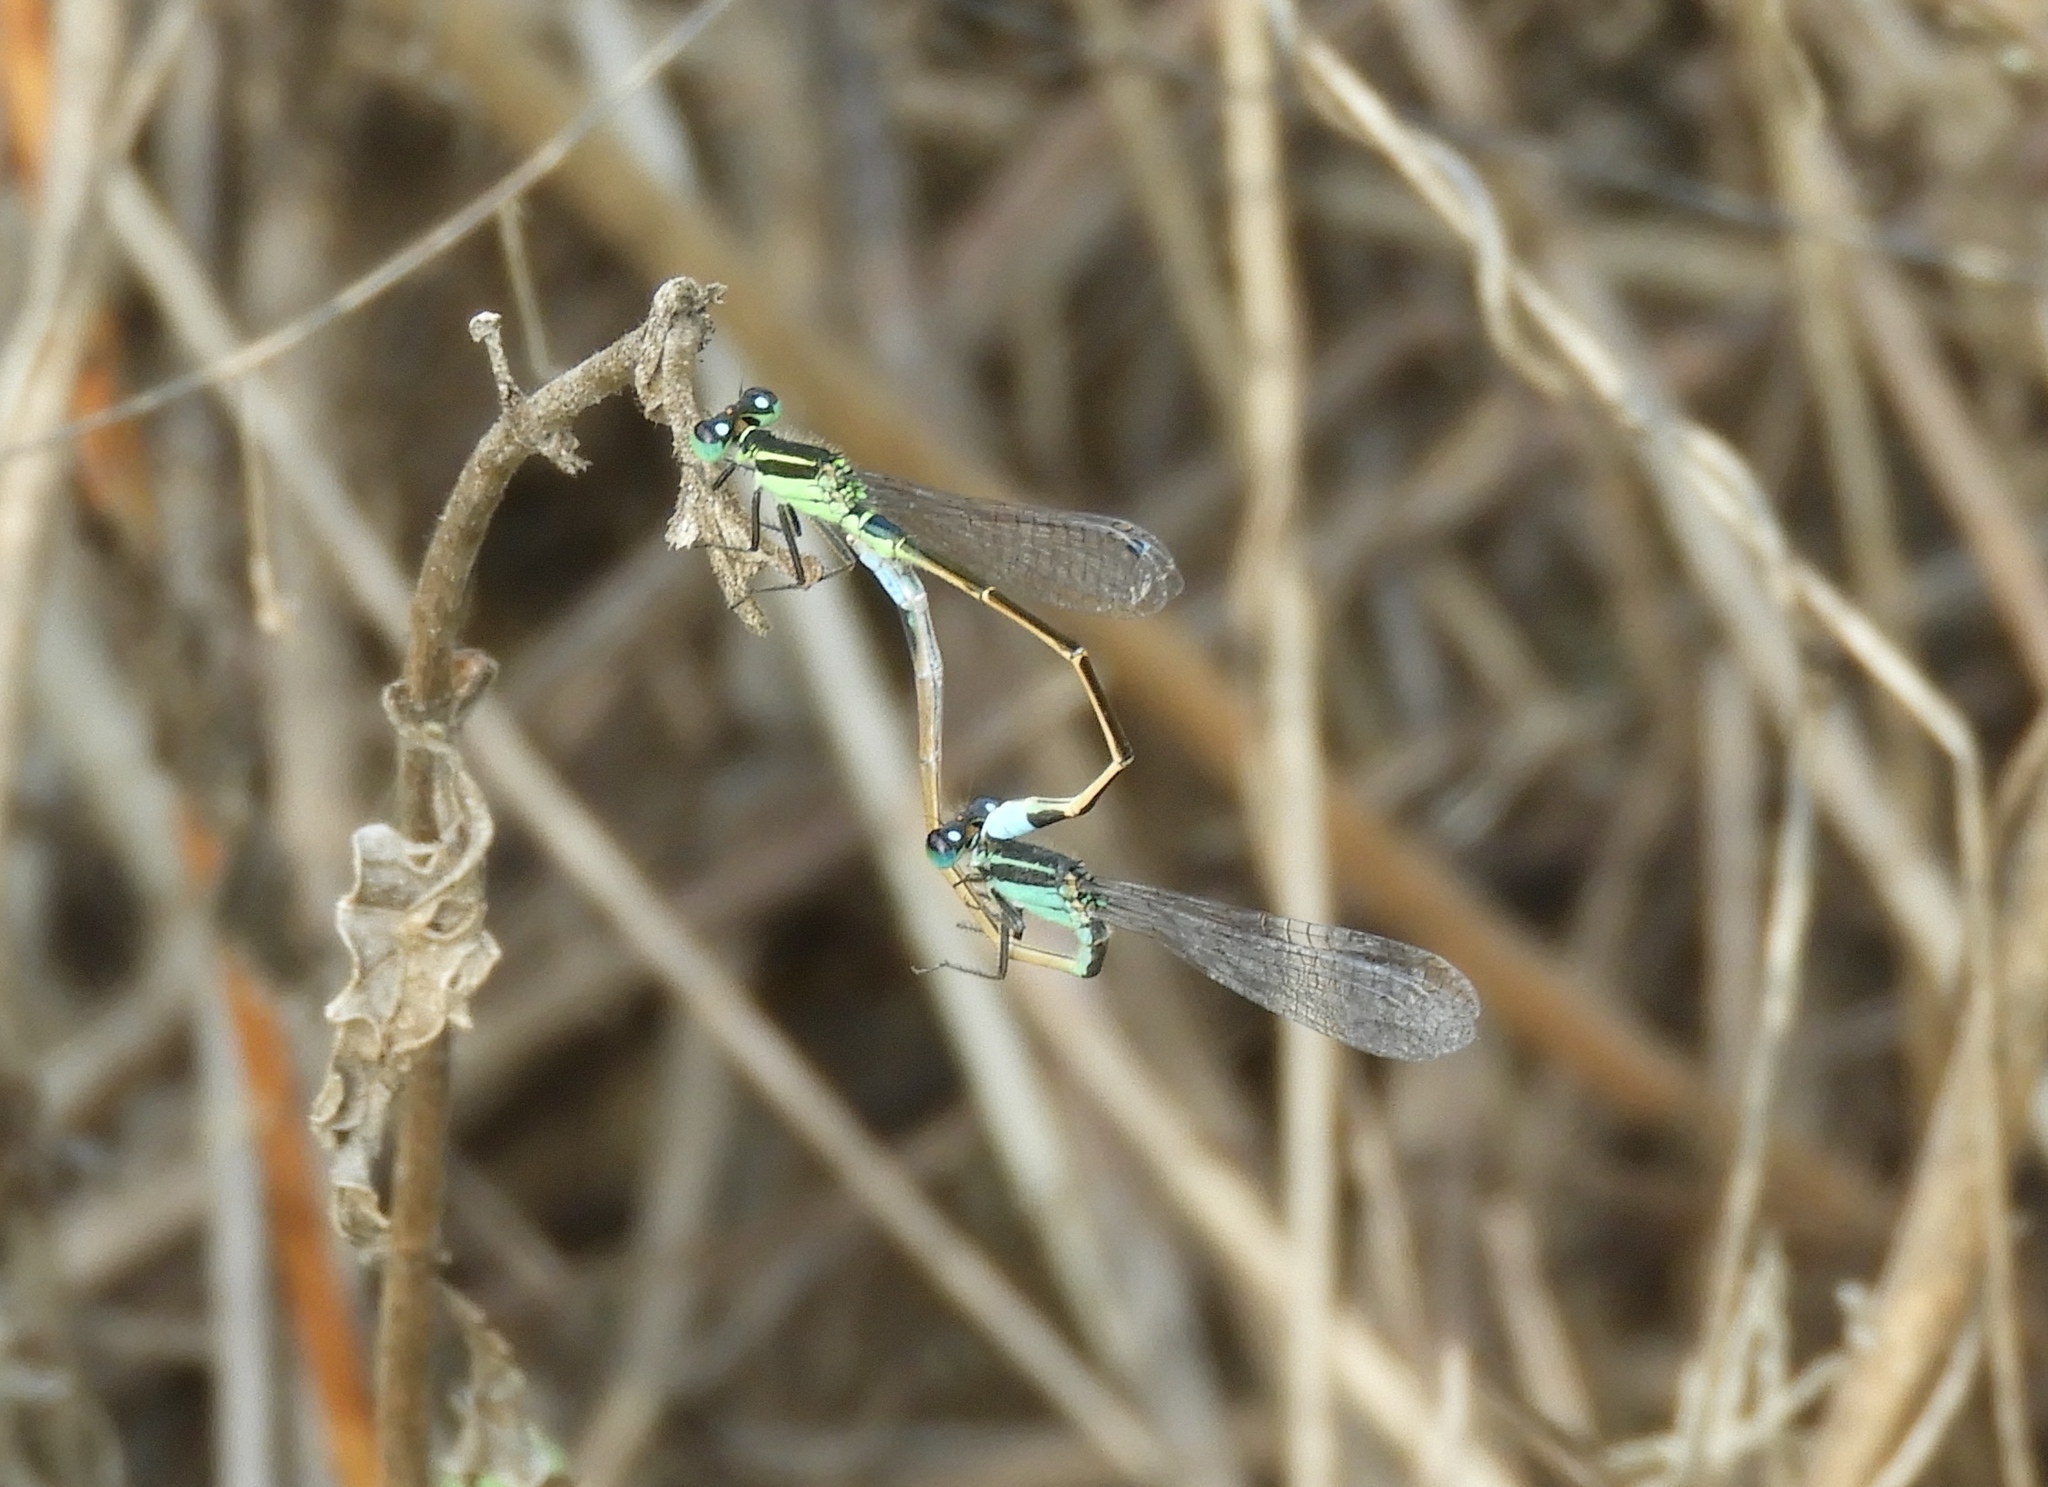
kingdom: Animalia
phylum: Arthropoda
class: Insecta
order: Odonata
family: Coenagrionidae
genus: Ischnura
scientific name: Ischnura ramburii
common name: Rambur's forktail
